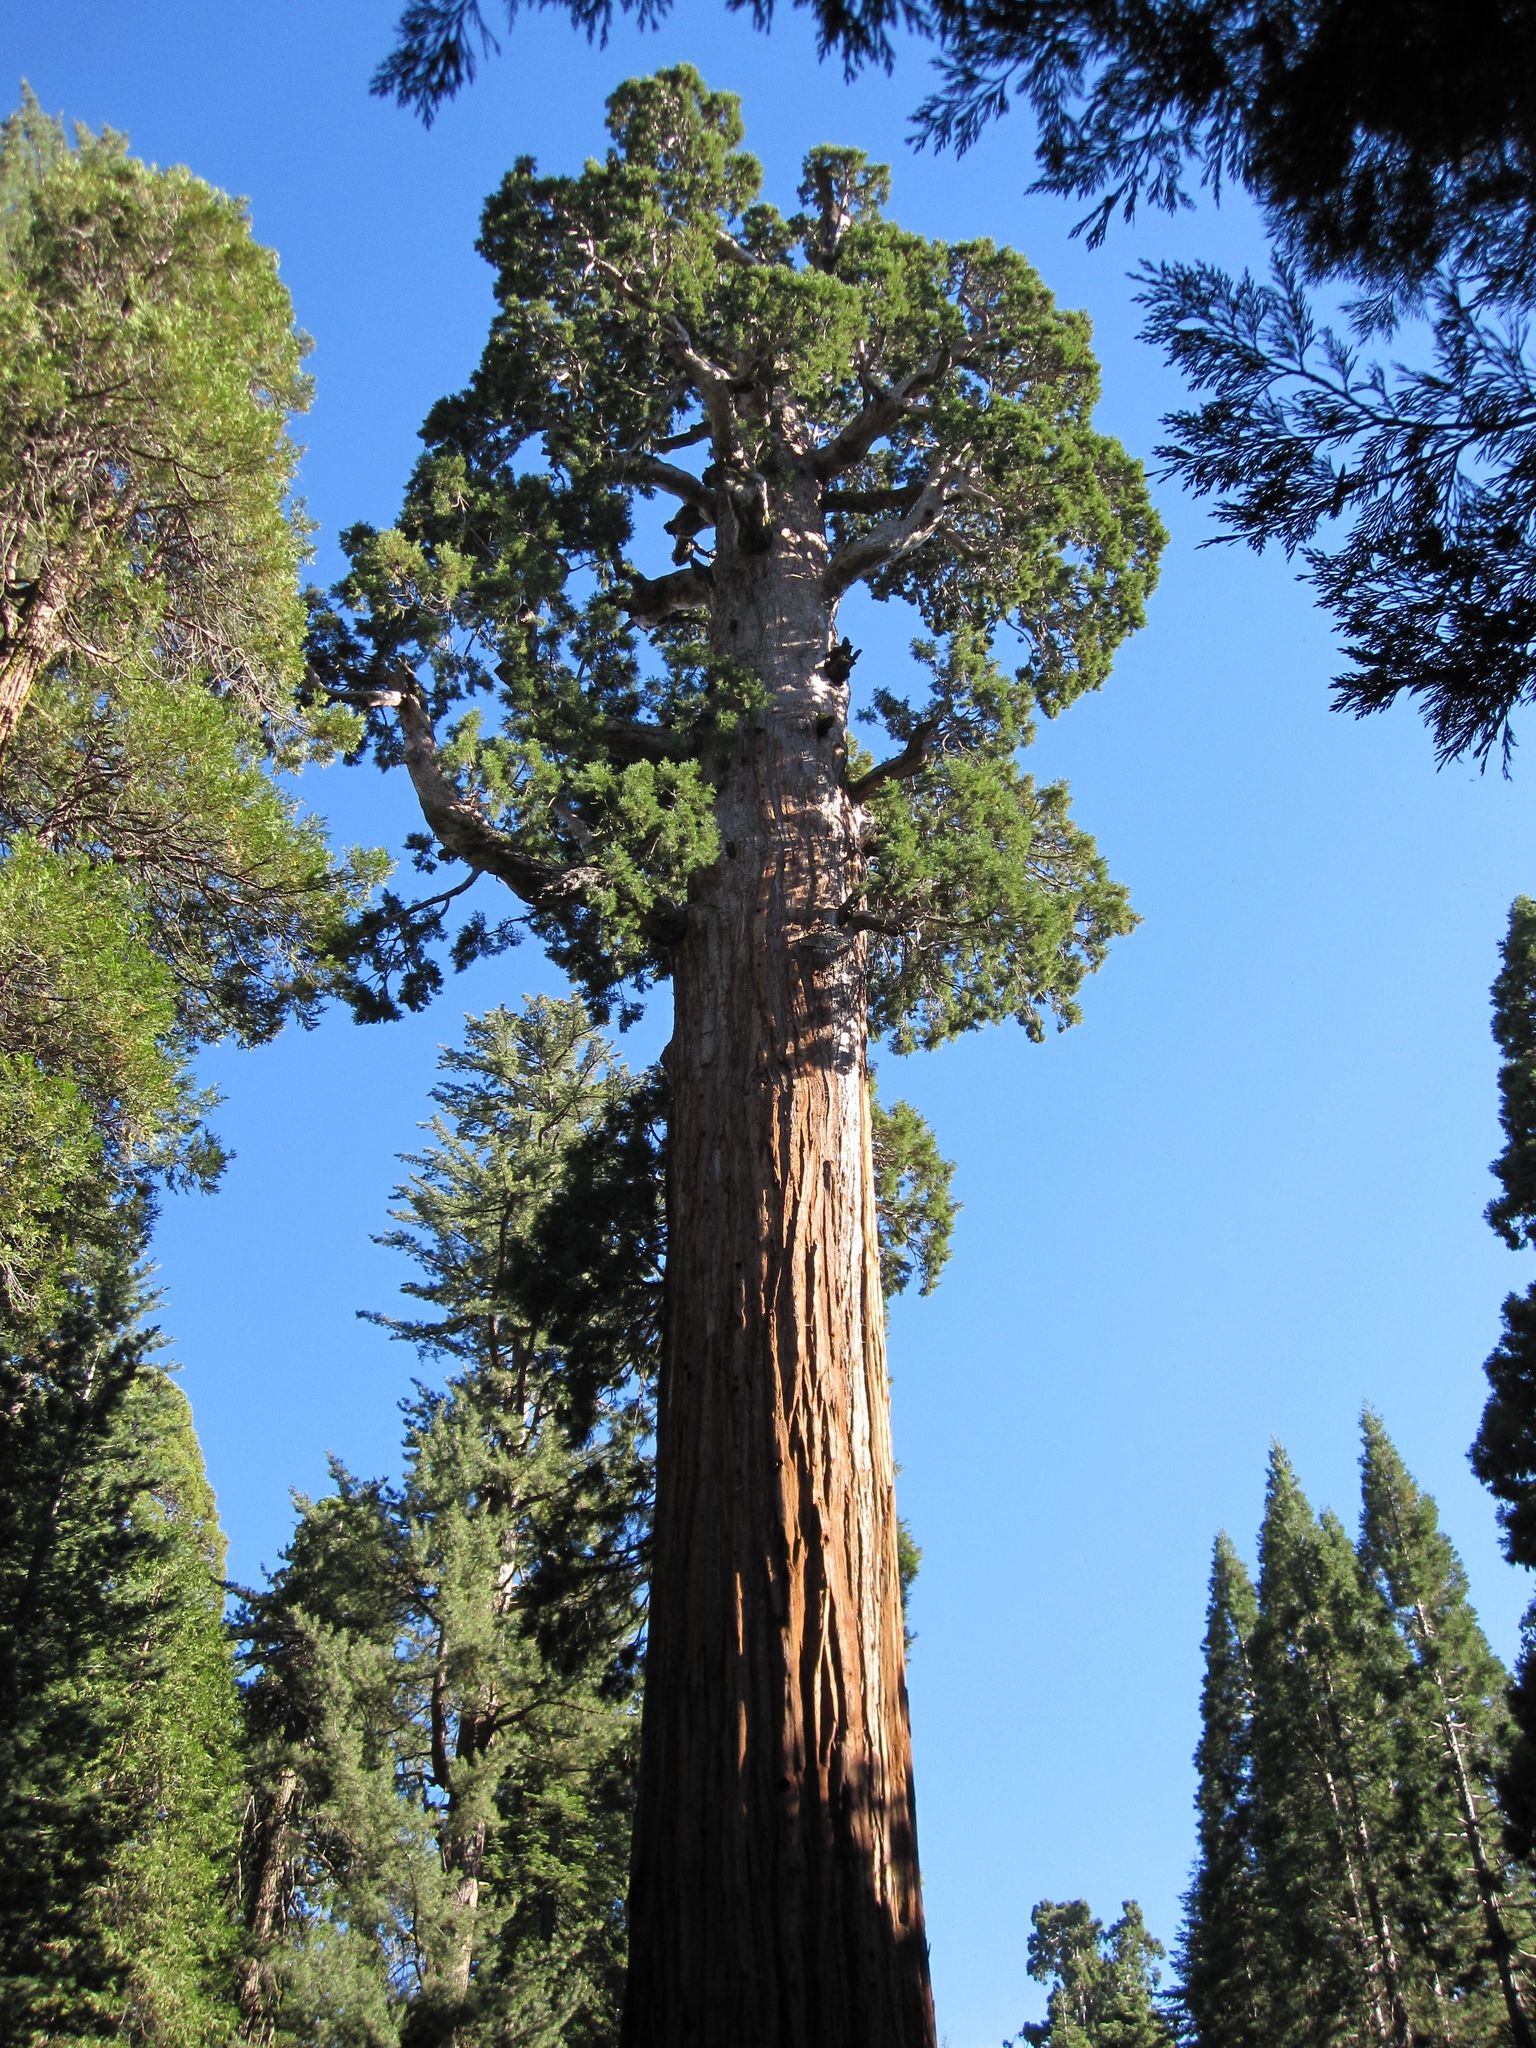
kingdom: Plantae
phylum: Tracheophyta
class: Pinopsida
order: Pinales
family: Cupressaceae
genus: Sequoiadendron
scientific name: Sequoiadendron giganteum
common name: Wellingtonia
